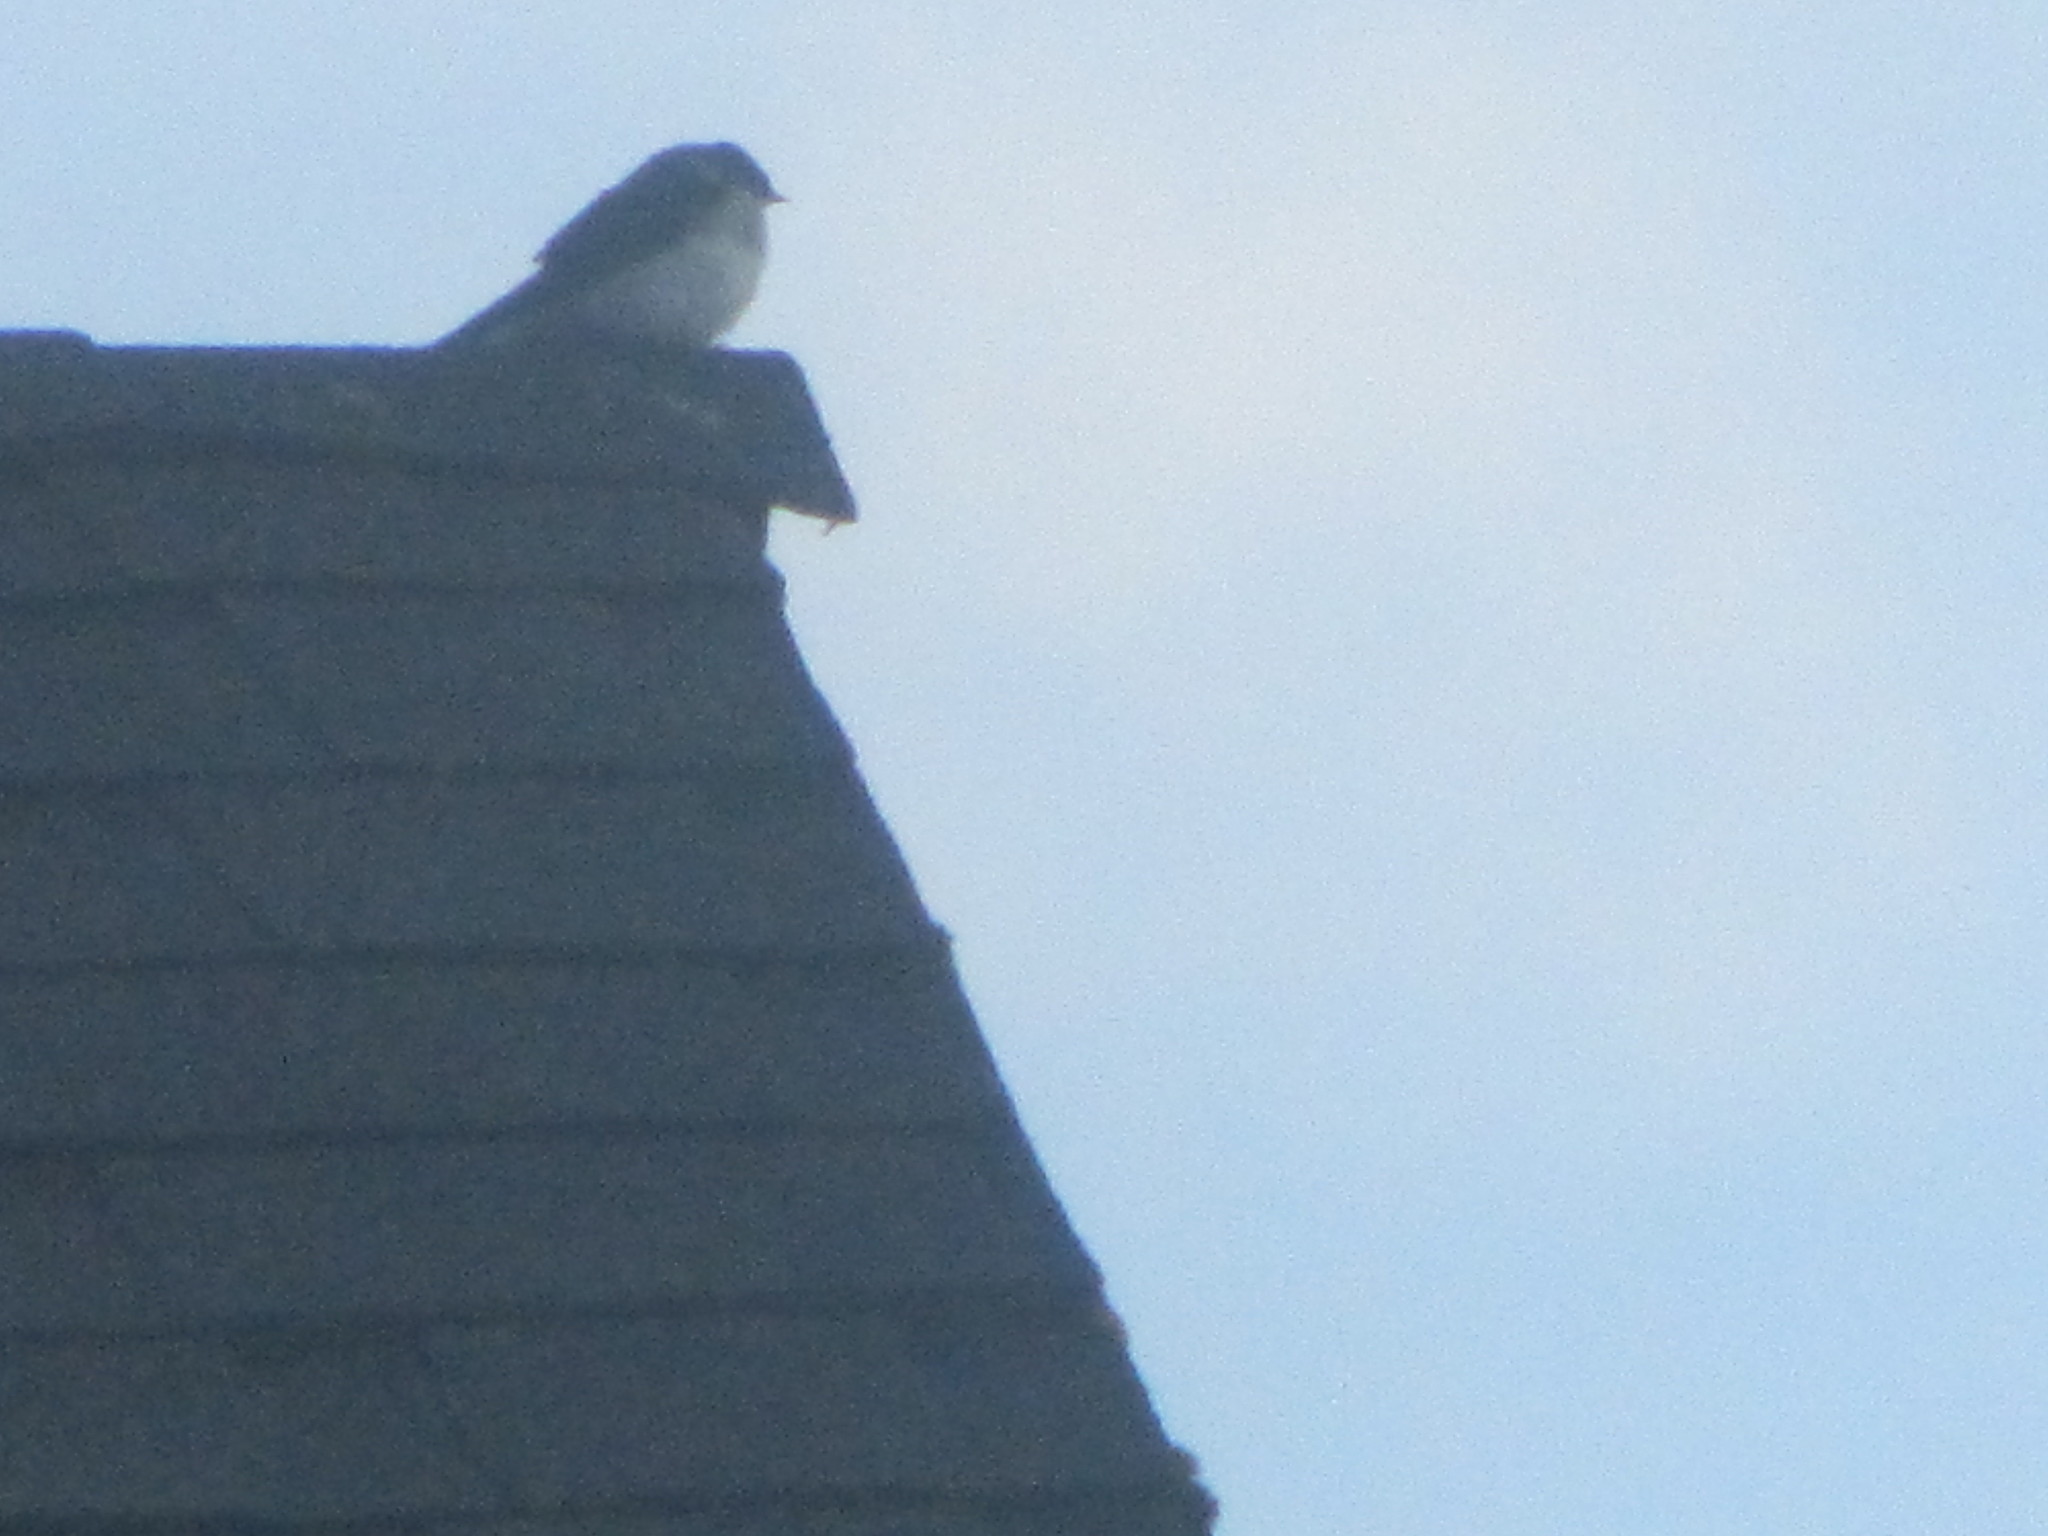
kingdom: Animalia
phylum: Chordata
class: Aves
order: Passeriformes
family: Hirundinidae
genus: Tachycineta
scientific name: Tachycineta thalassina
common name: Violet-green swallow
